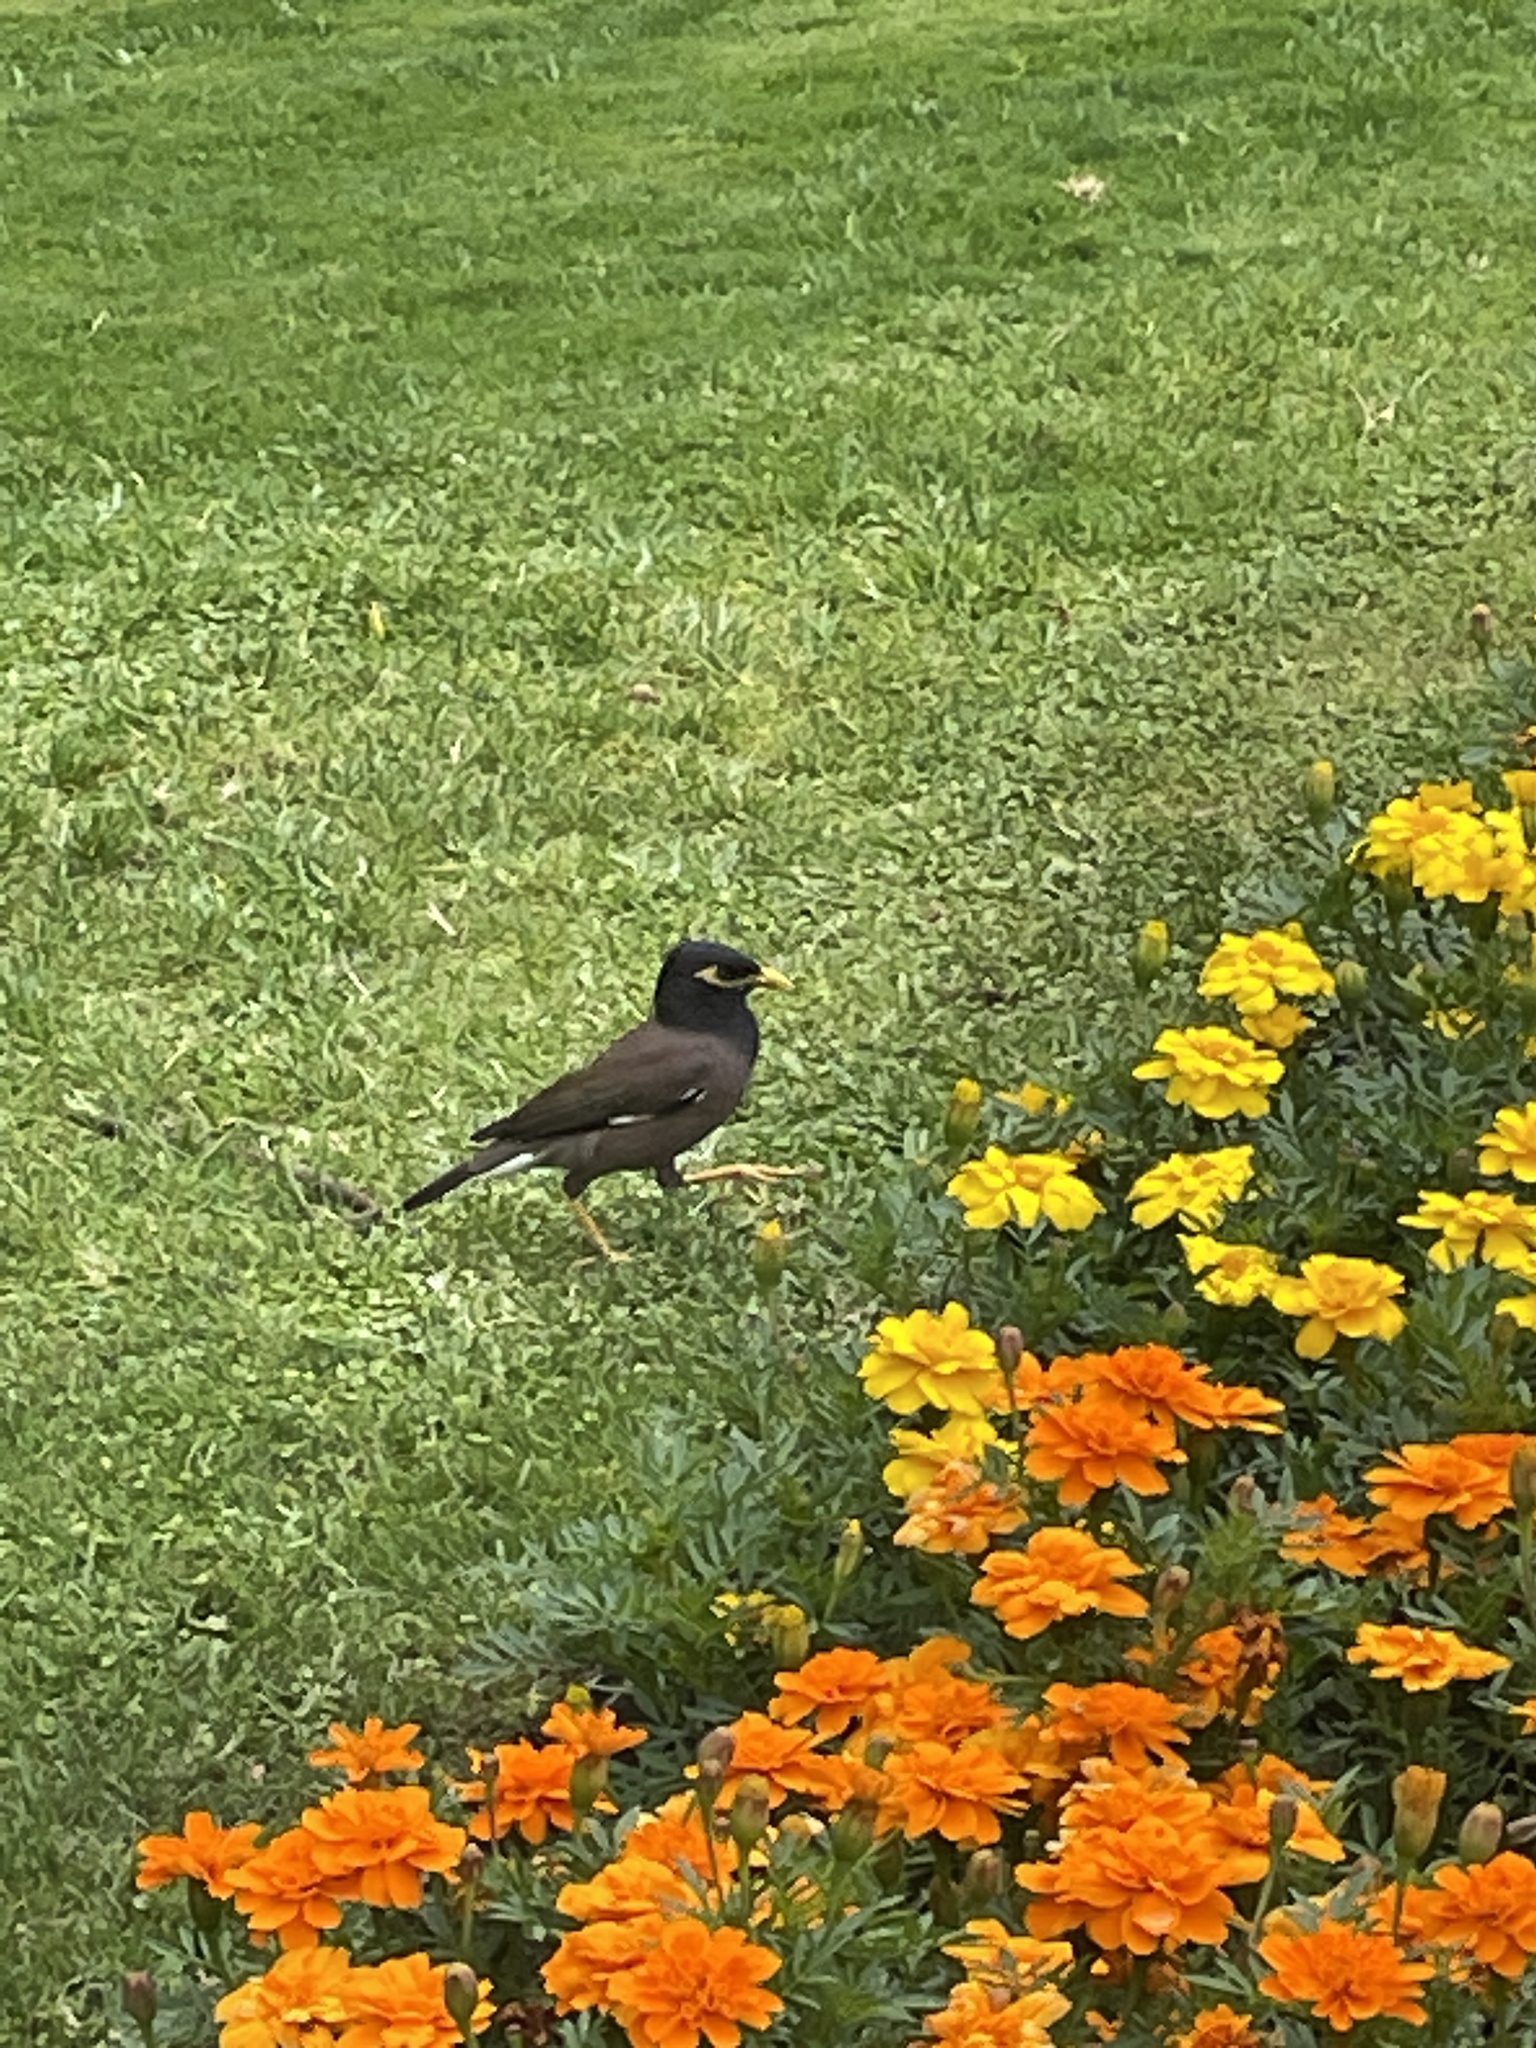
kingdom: Animalia
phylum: Chordata
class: Aves
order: Passeriformes
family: Sturnidae
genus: Acridotheres
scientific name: Acridotheres tristis
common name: Common myna
